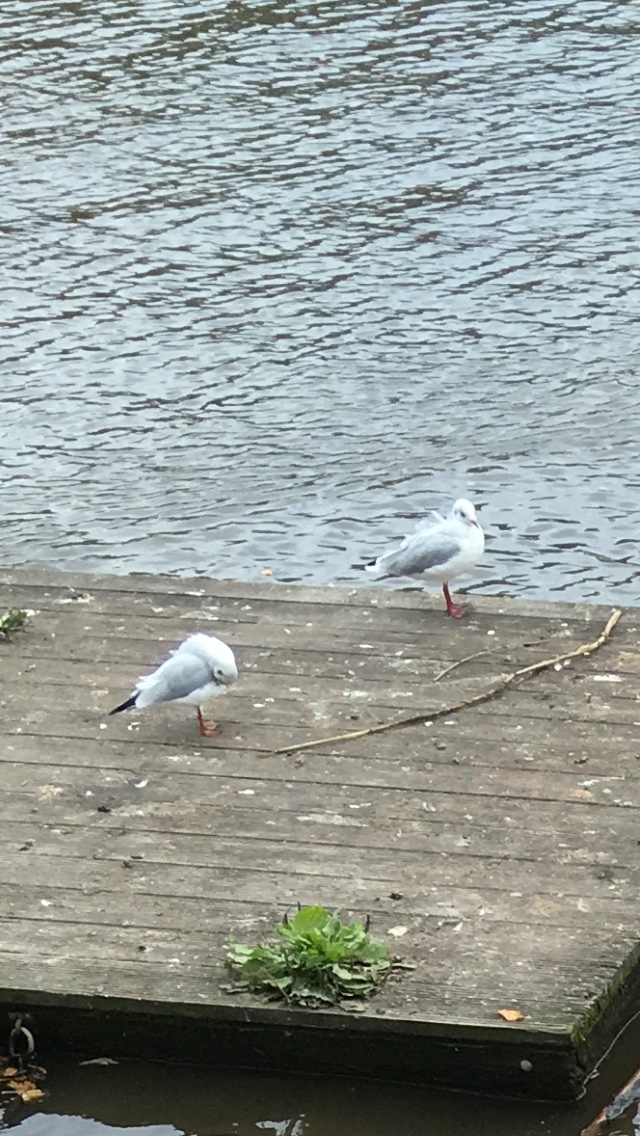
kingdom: Animalia
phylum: Chordata
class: Aves
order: Charadriiformes
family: Laridae
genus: Chroicocephalus
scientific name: Chroicocephalus ridibundus
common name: Black-headed gull
